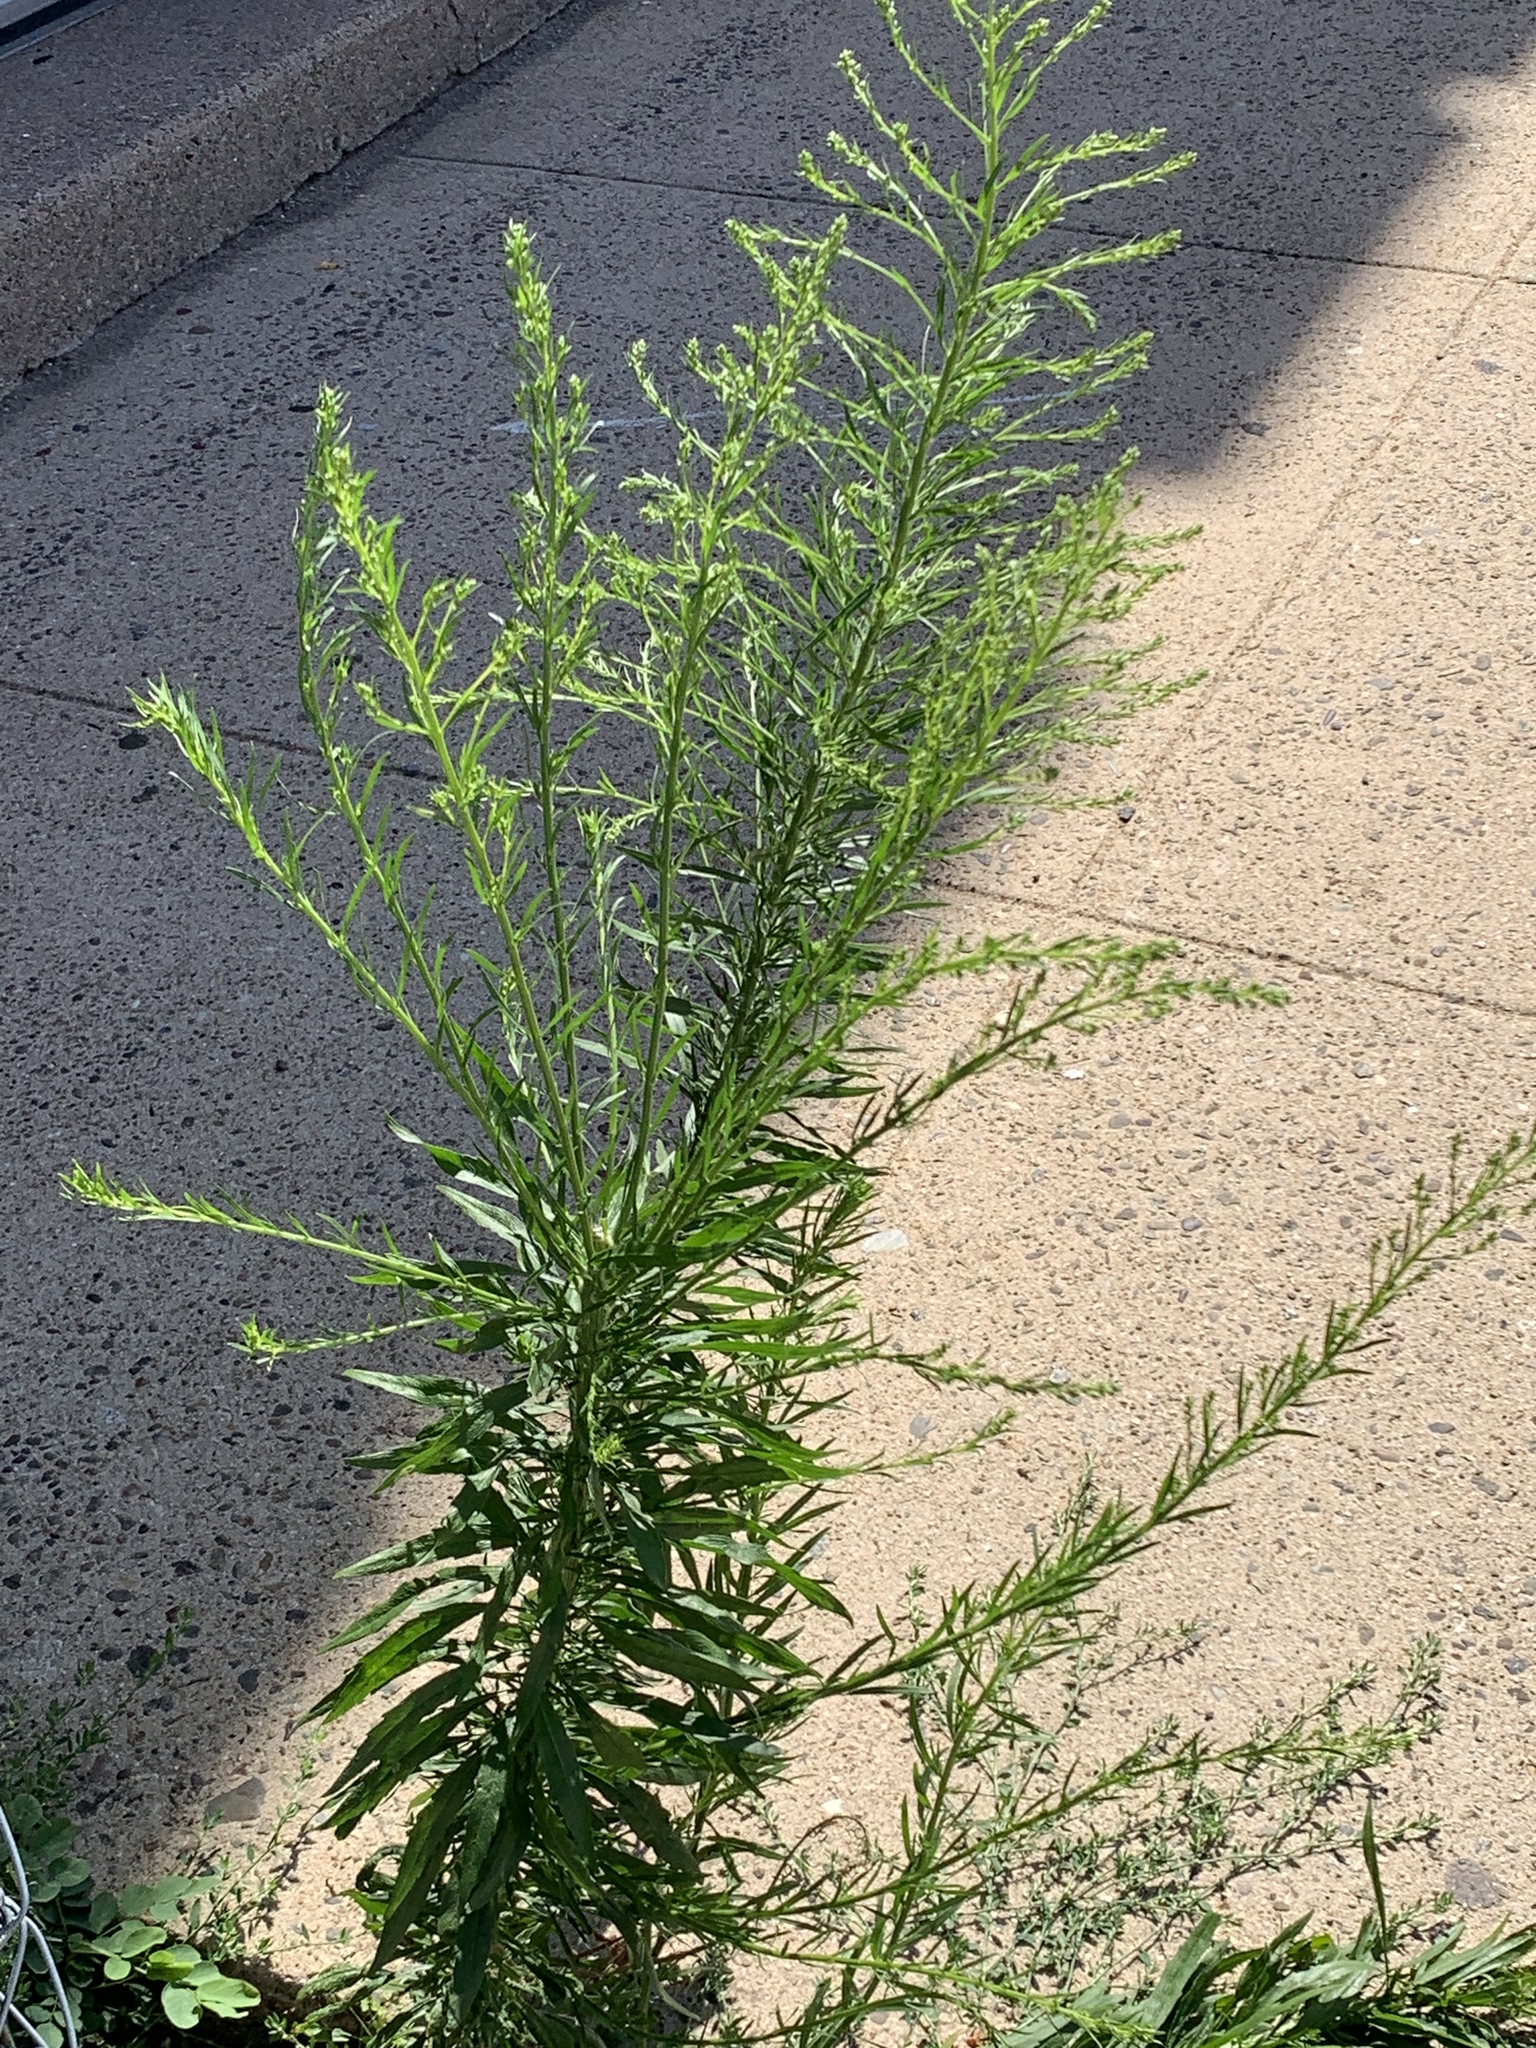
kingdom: Plantae
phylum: Tracheophyta
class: Magnoliopsida
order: Asterales
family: Asteraceae
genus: Erigeron
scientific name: Erigeron canadensis
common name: Canadian fleabane
